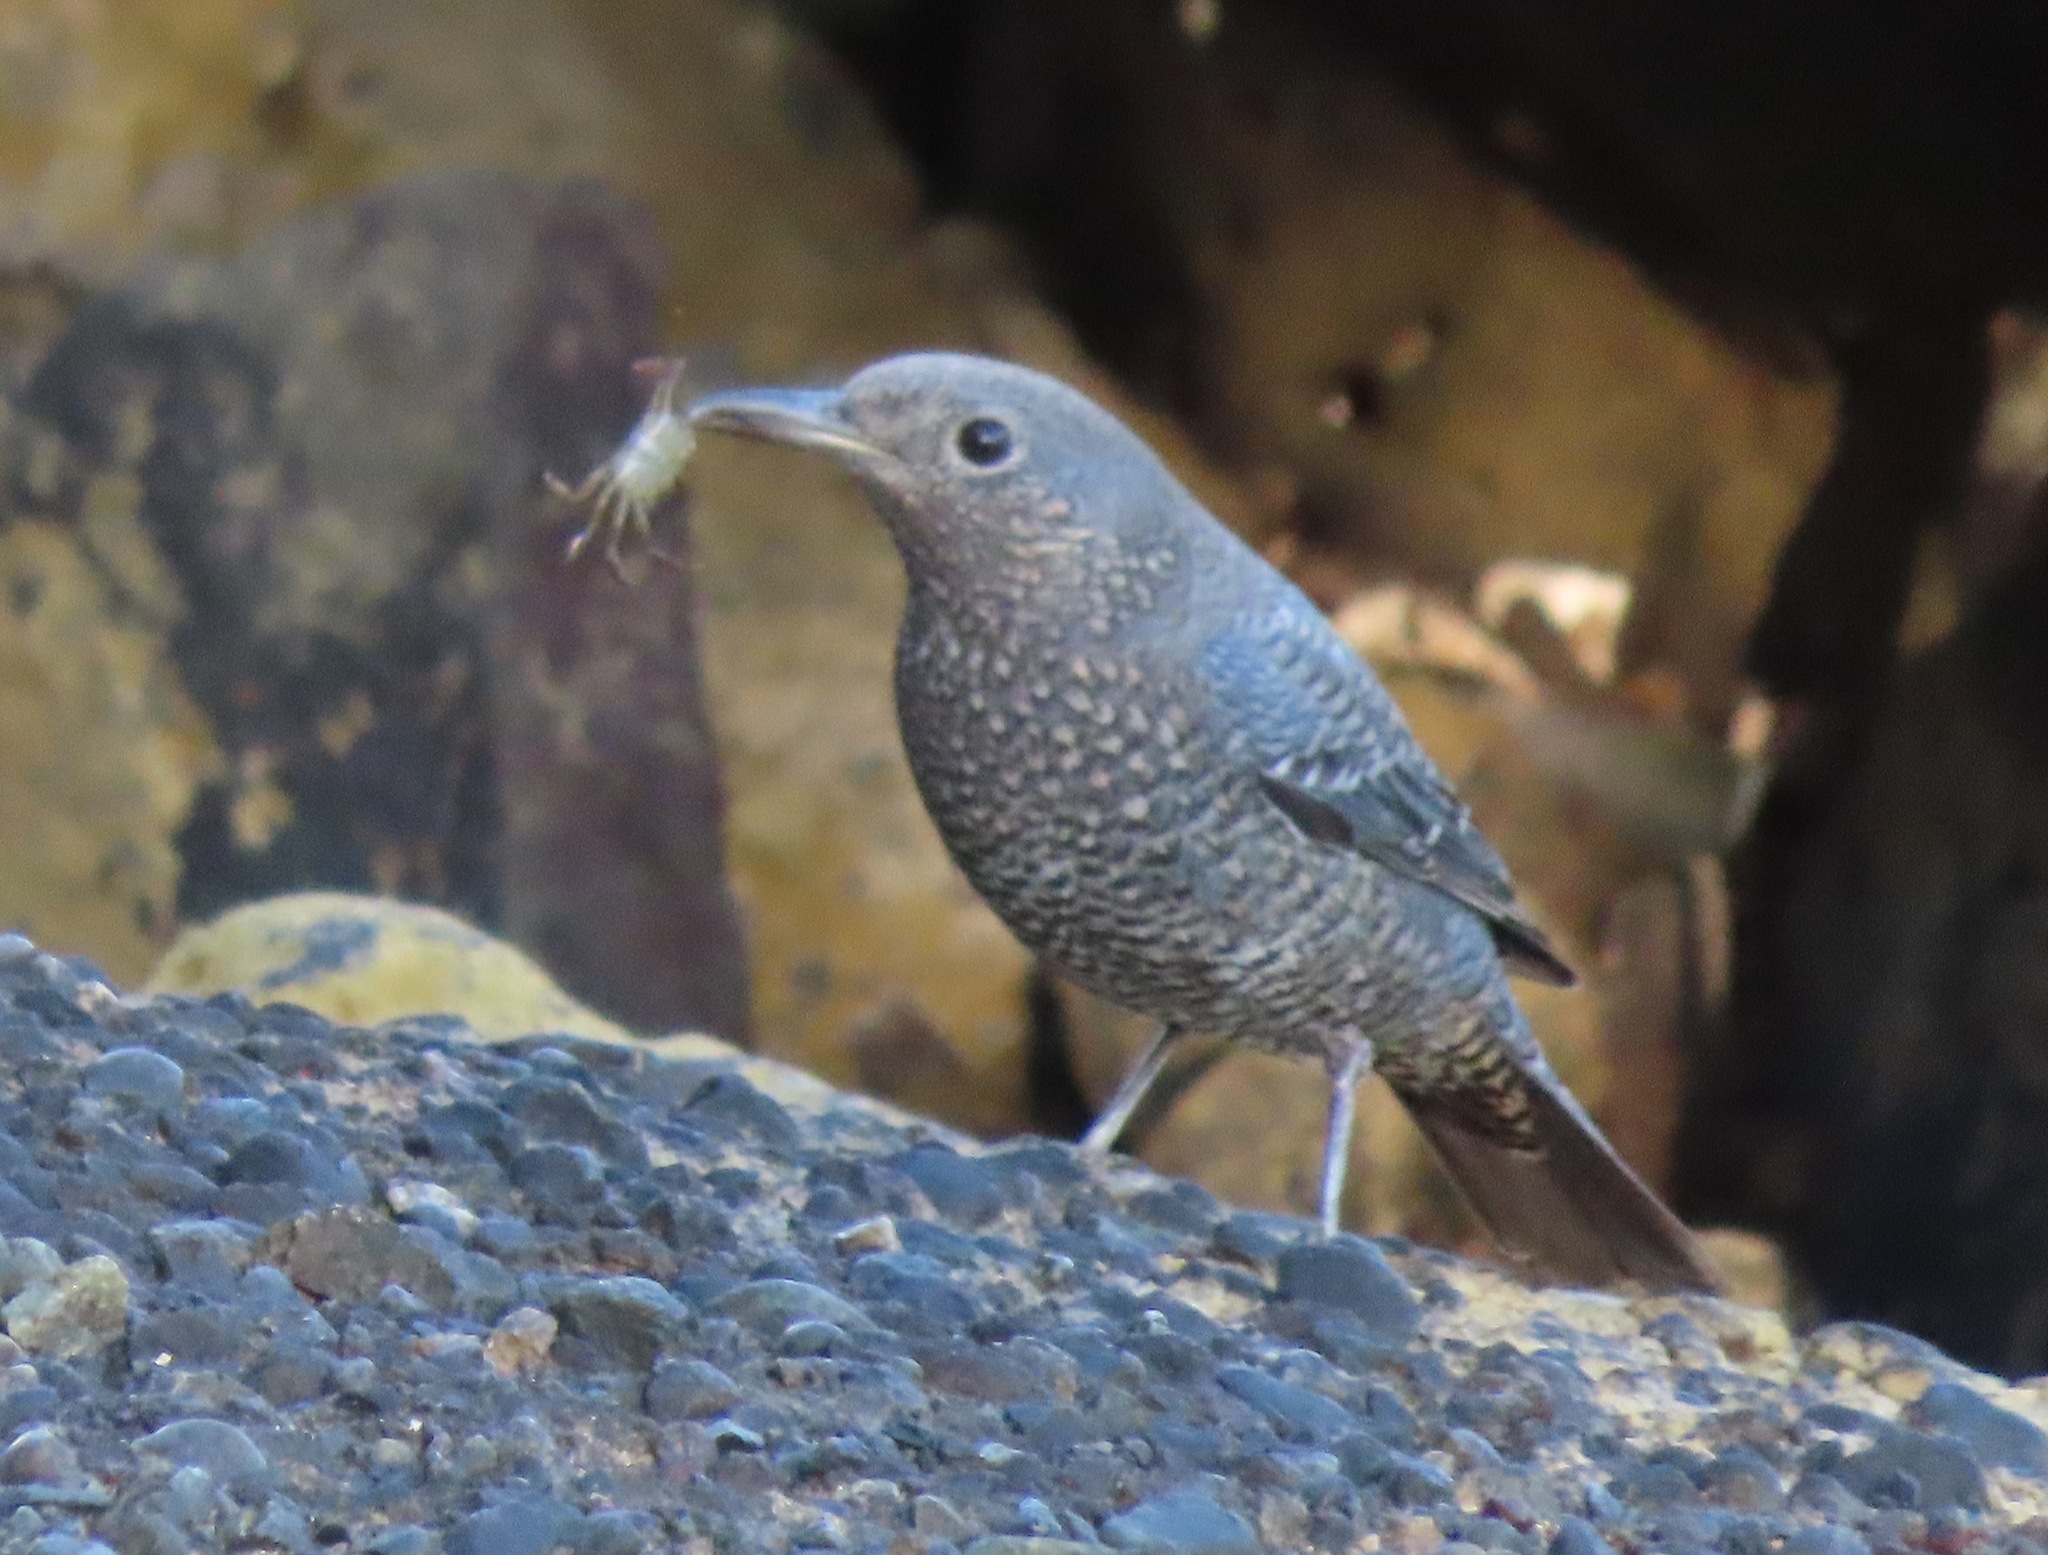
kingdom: Animalia
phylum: Chordata
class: Aves
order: Passeriformes
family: Muscicapidae
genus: Monticola
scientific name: Monticola solitarius
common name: Blue rock thrush
